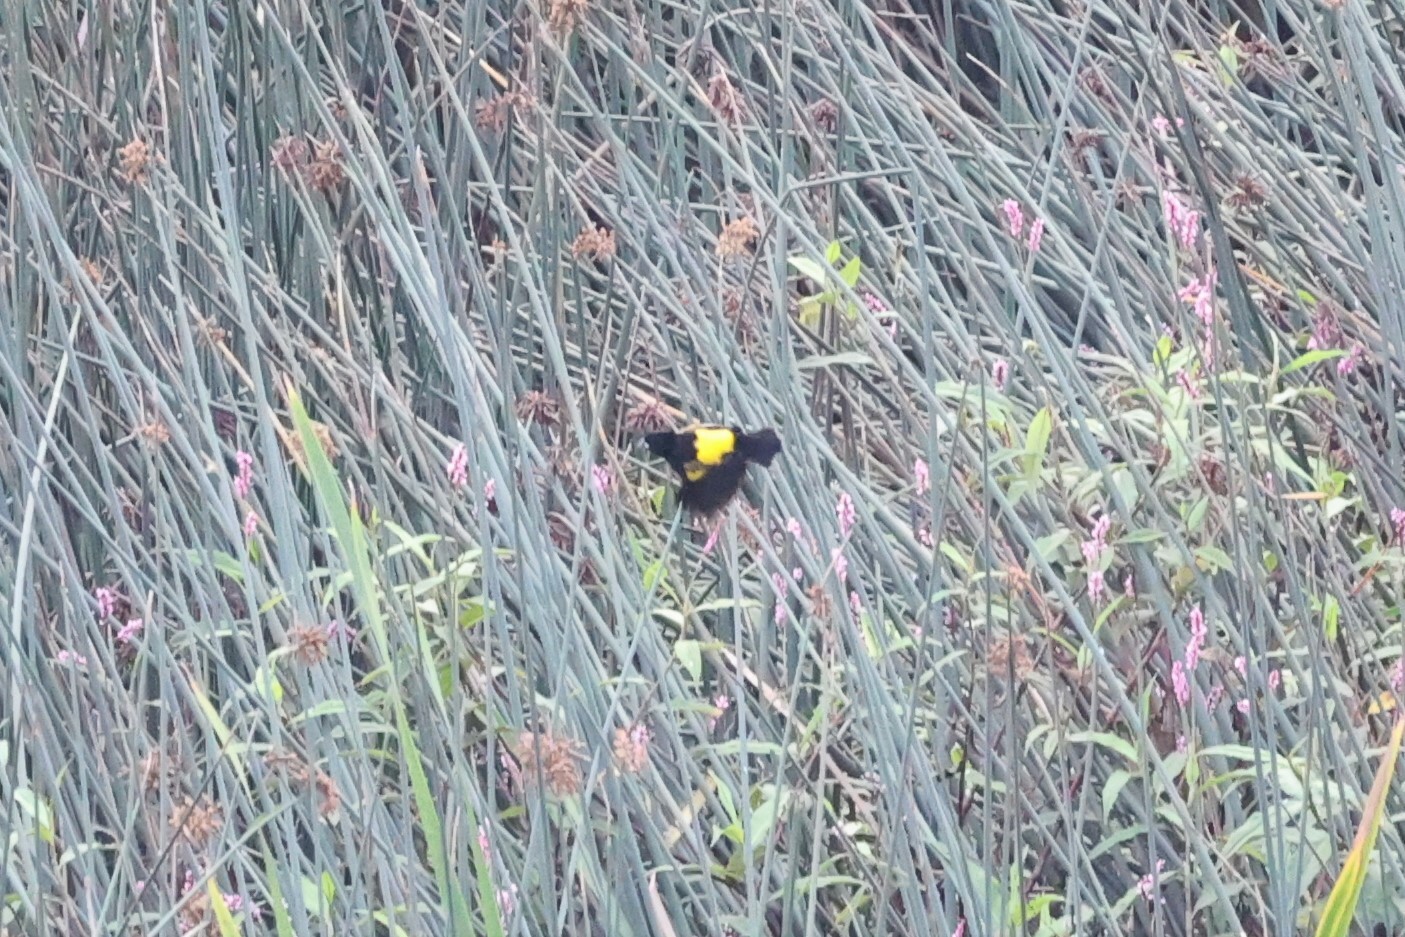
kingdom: Animalia
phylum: Chordata
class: Aves
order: Passeriformes
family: Ploceidae
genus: Euplectes
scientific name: Euplectes capensis
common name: Yellow bishop
